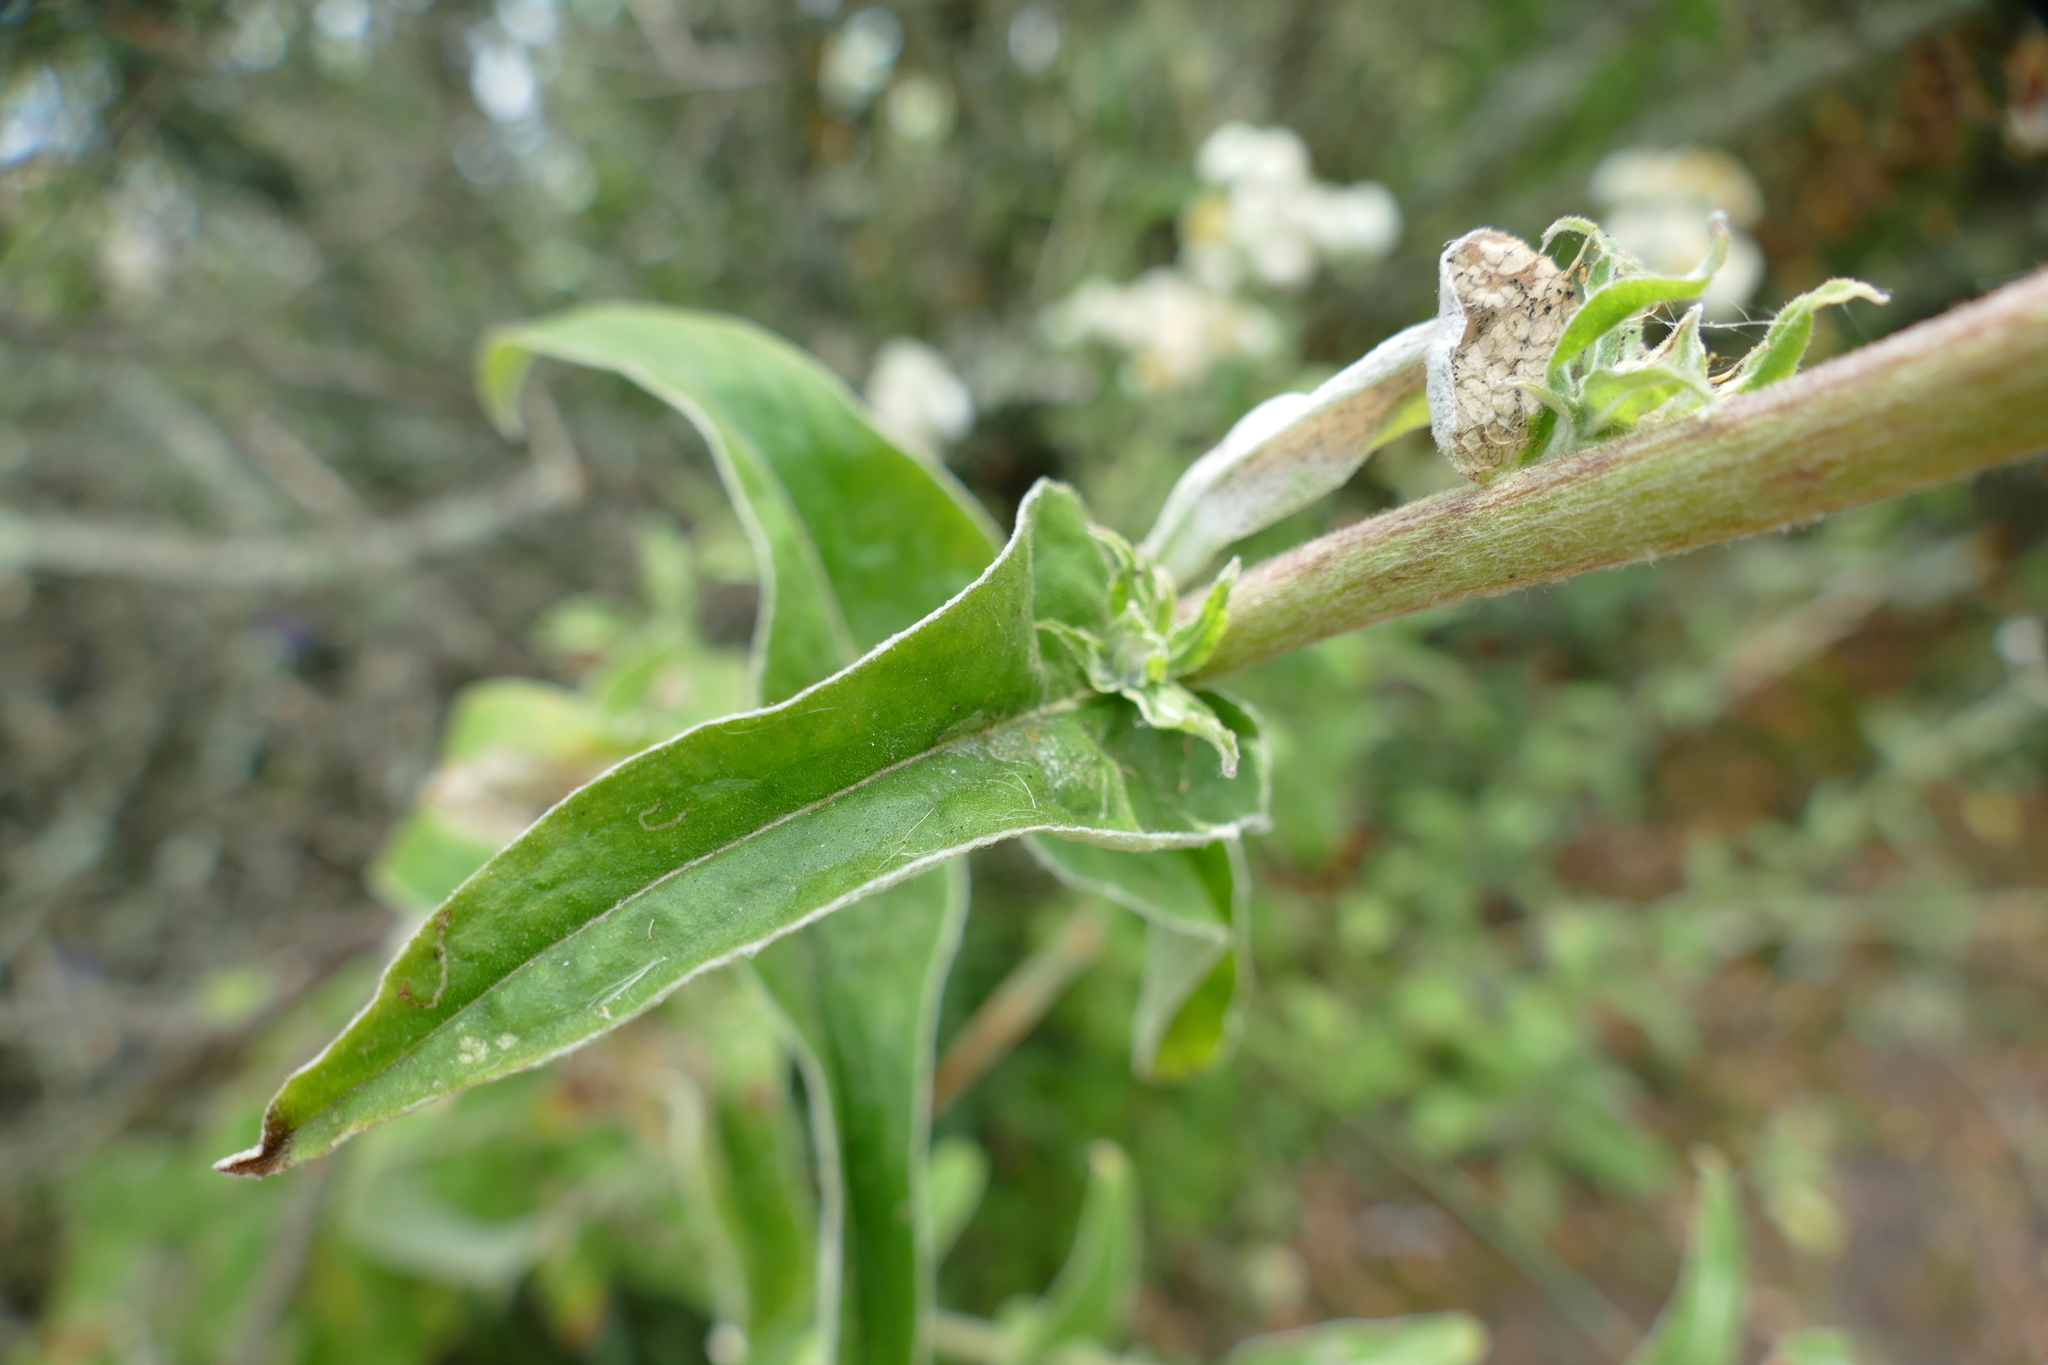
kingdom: Plantae
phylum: Tracheophyta
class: Magnoliopsida
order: Asterales
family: Asteraceae
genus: Helichrysum
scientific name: Helichrysum foetidum
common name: Stinking everlasting
